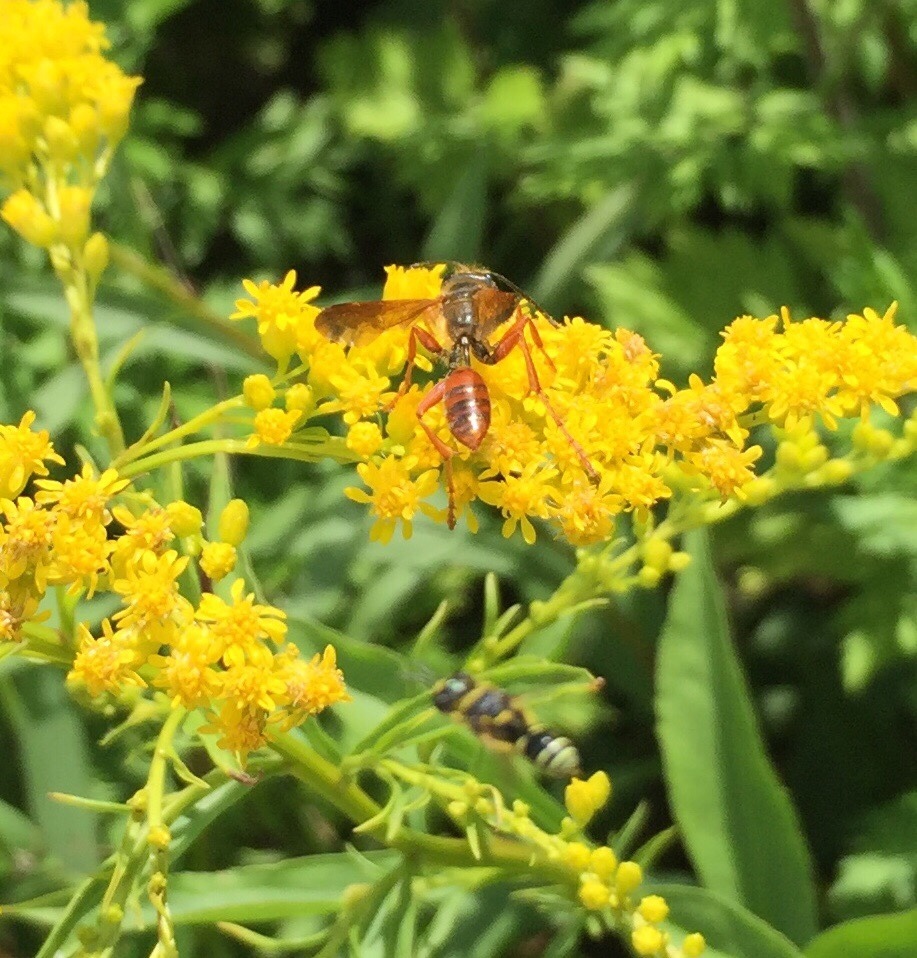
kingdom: Animalia
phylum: Arthropoda
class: Insecta
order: Hymenoptera
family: Sphecidae
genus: Isodontia
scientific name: Isodontia elegans
